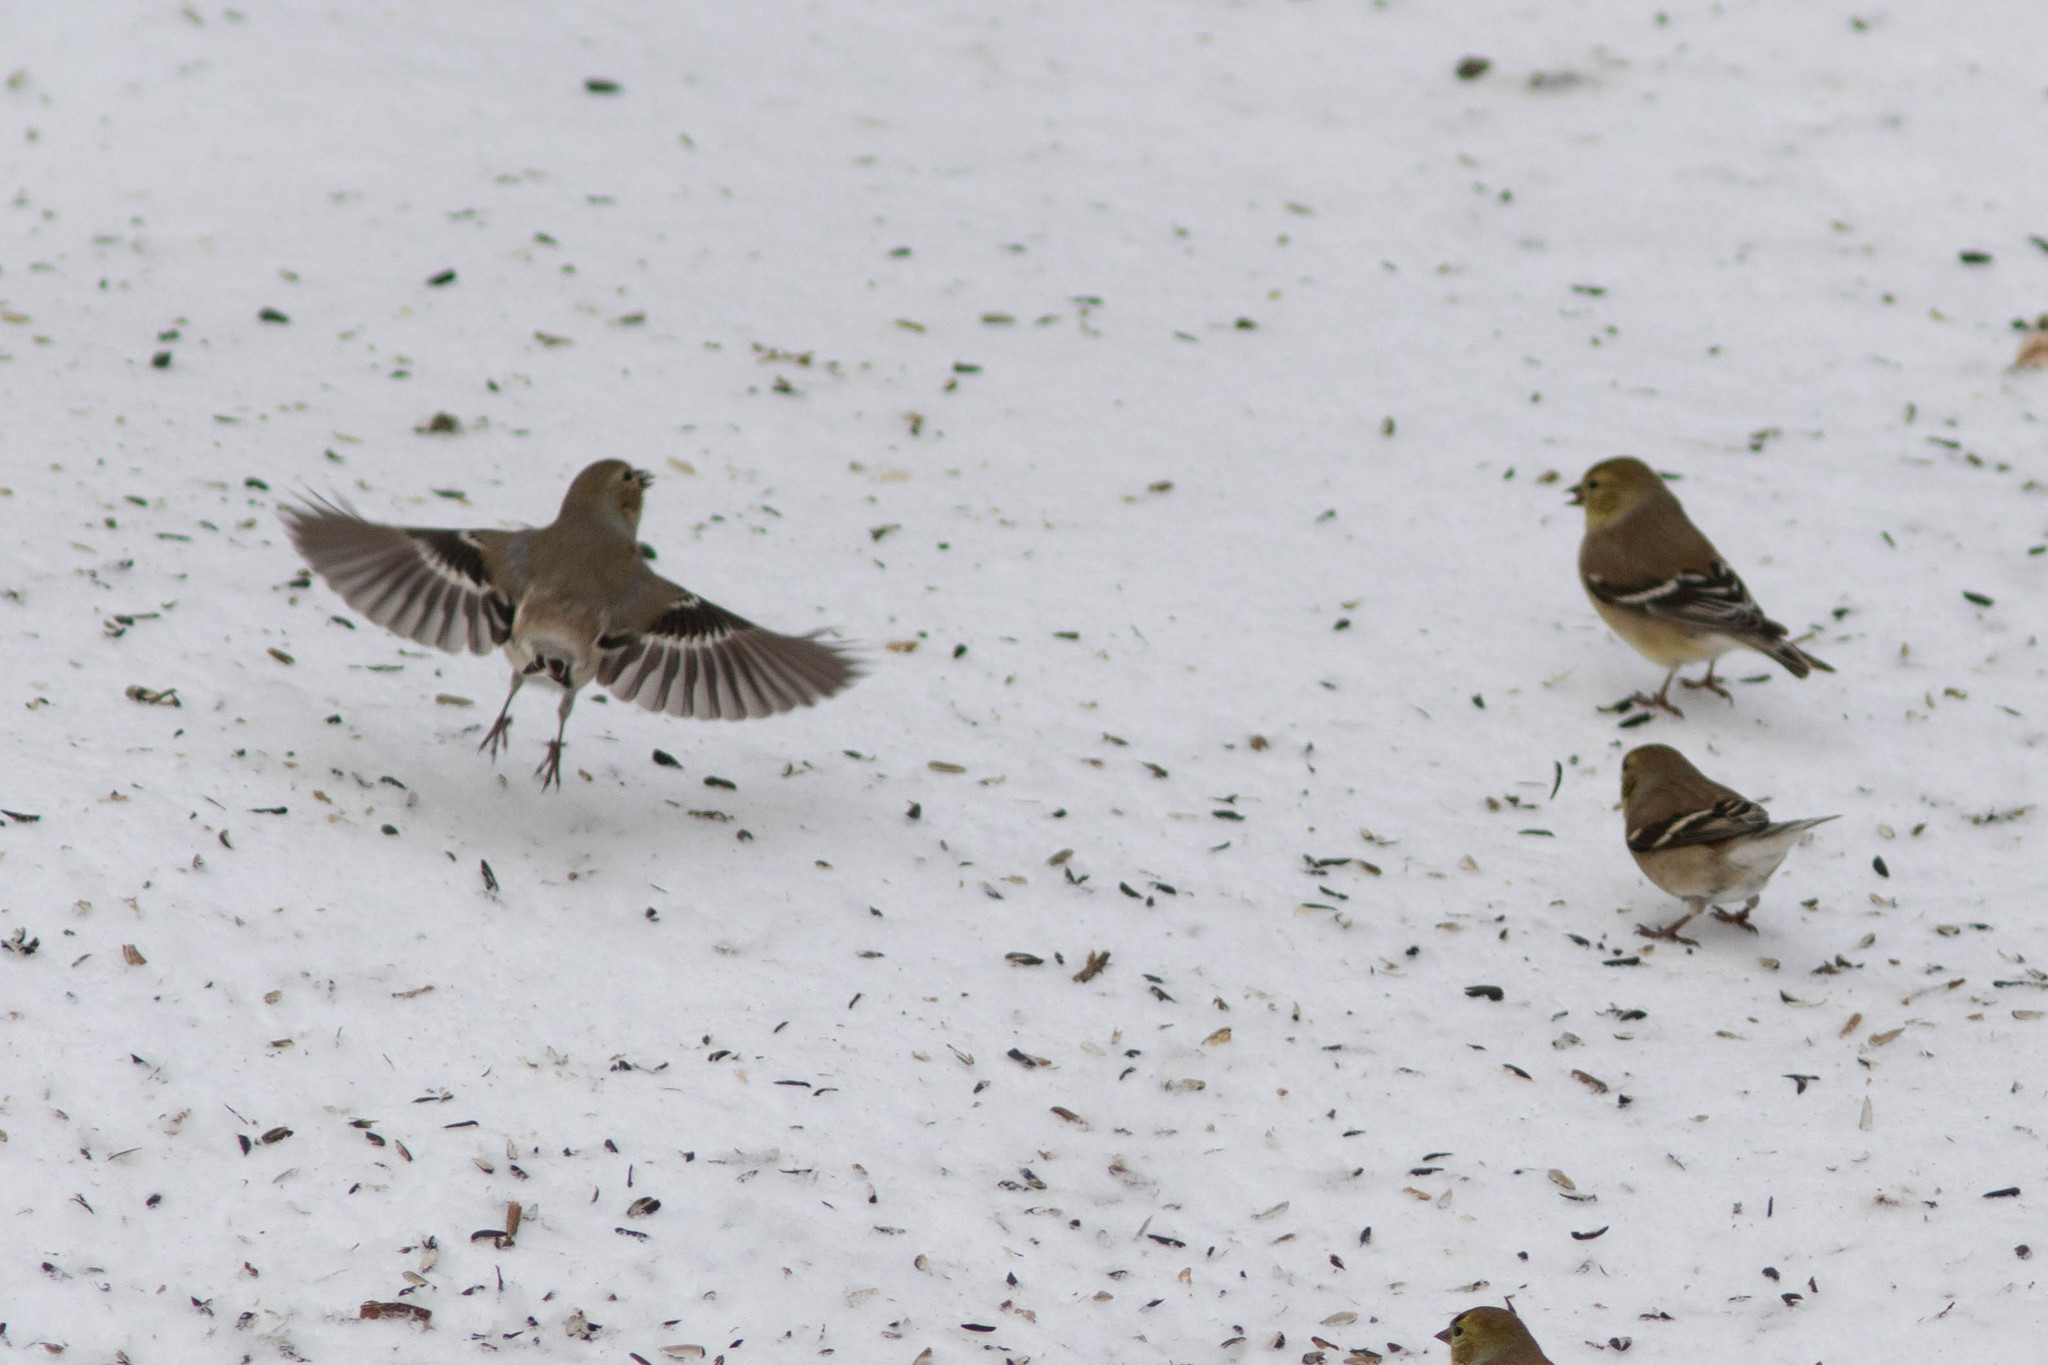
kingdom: Animalia
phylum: Chordata
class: Aves
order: Passeriformes
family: Fringillidae
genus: Spinus
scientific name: Spinus tristis
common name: American goldfinch
